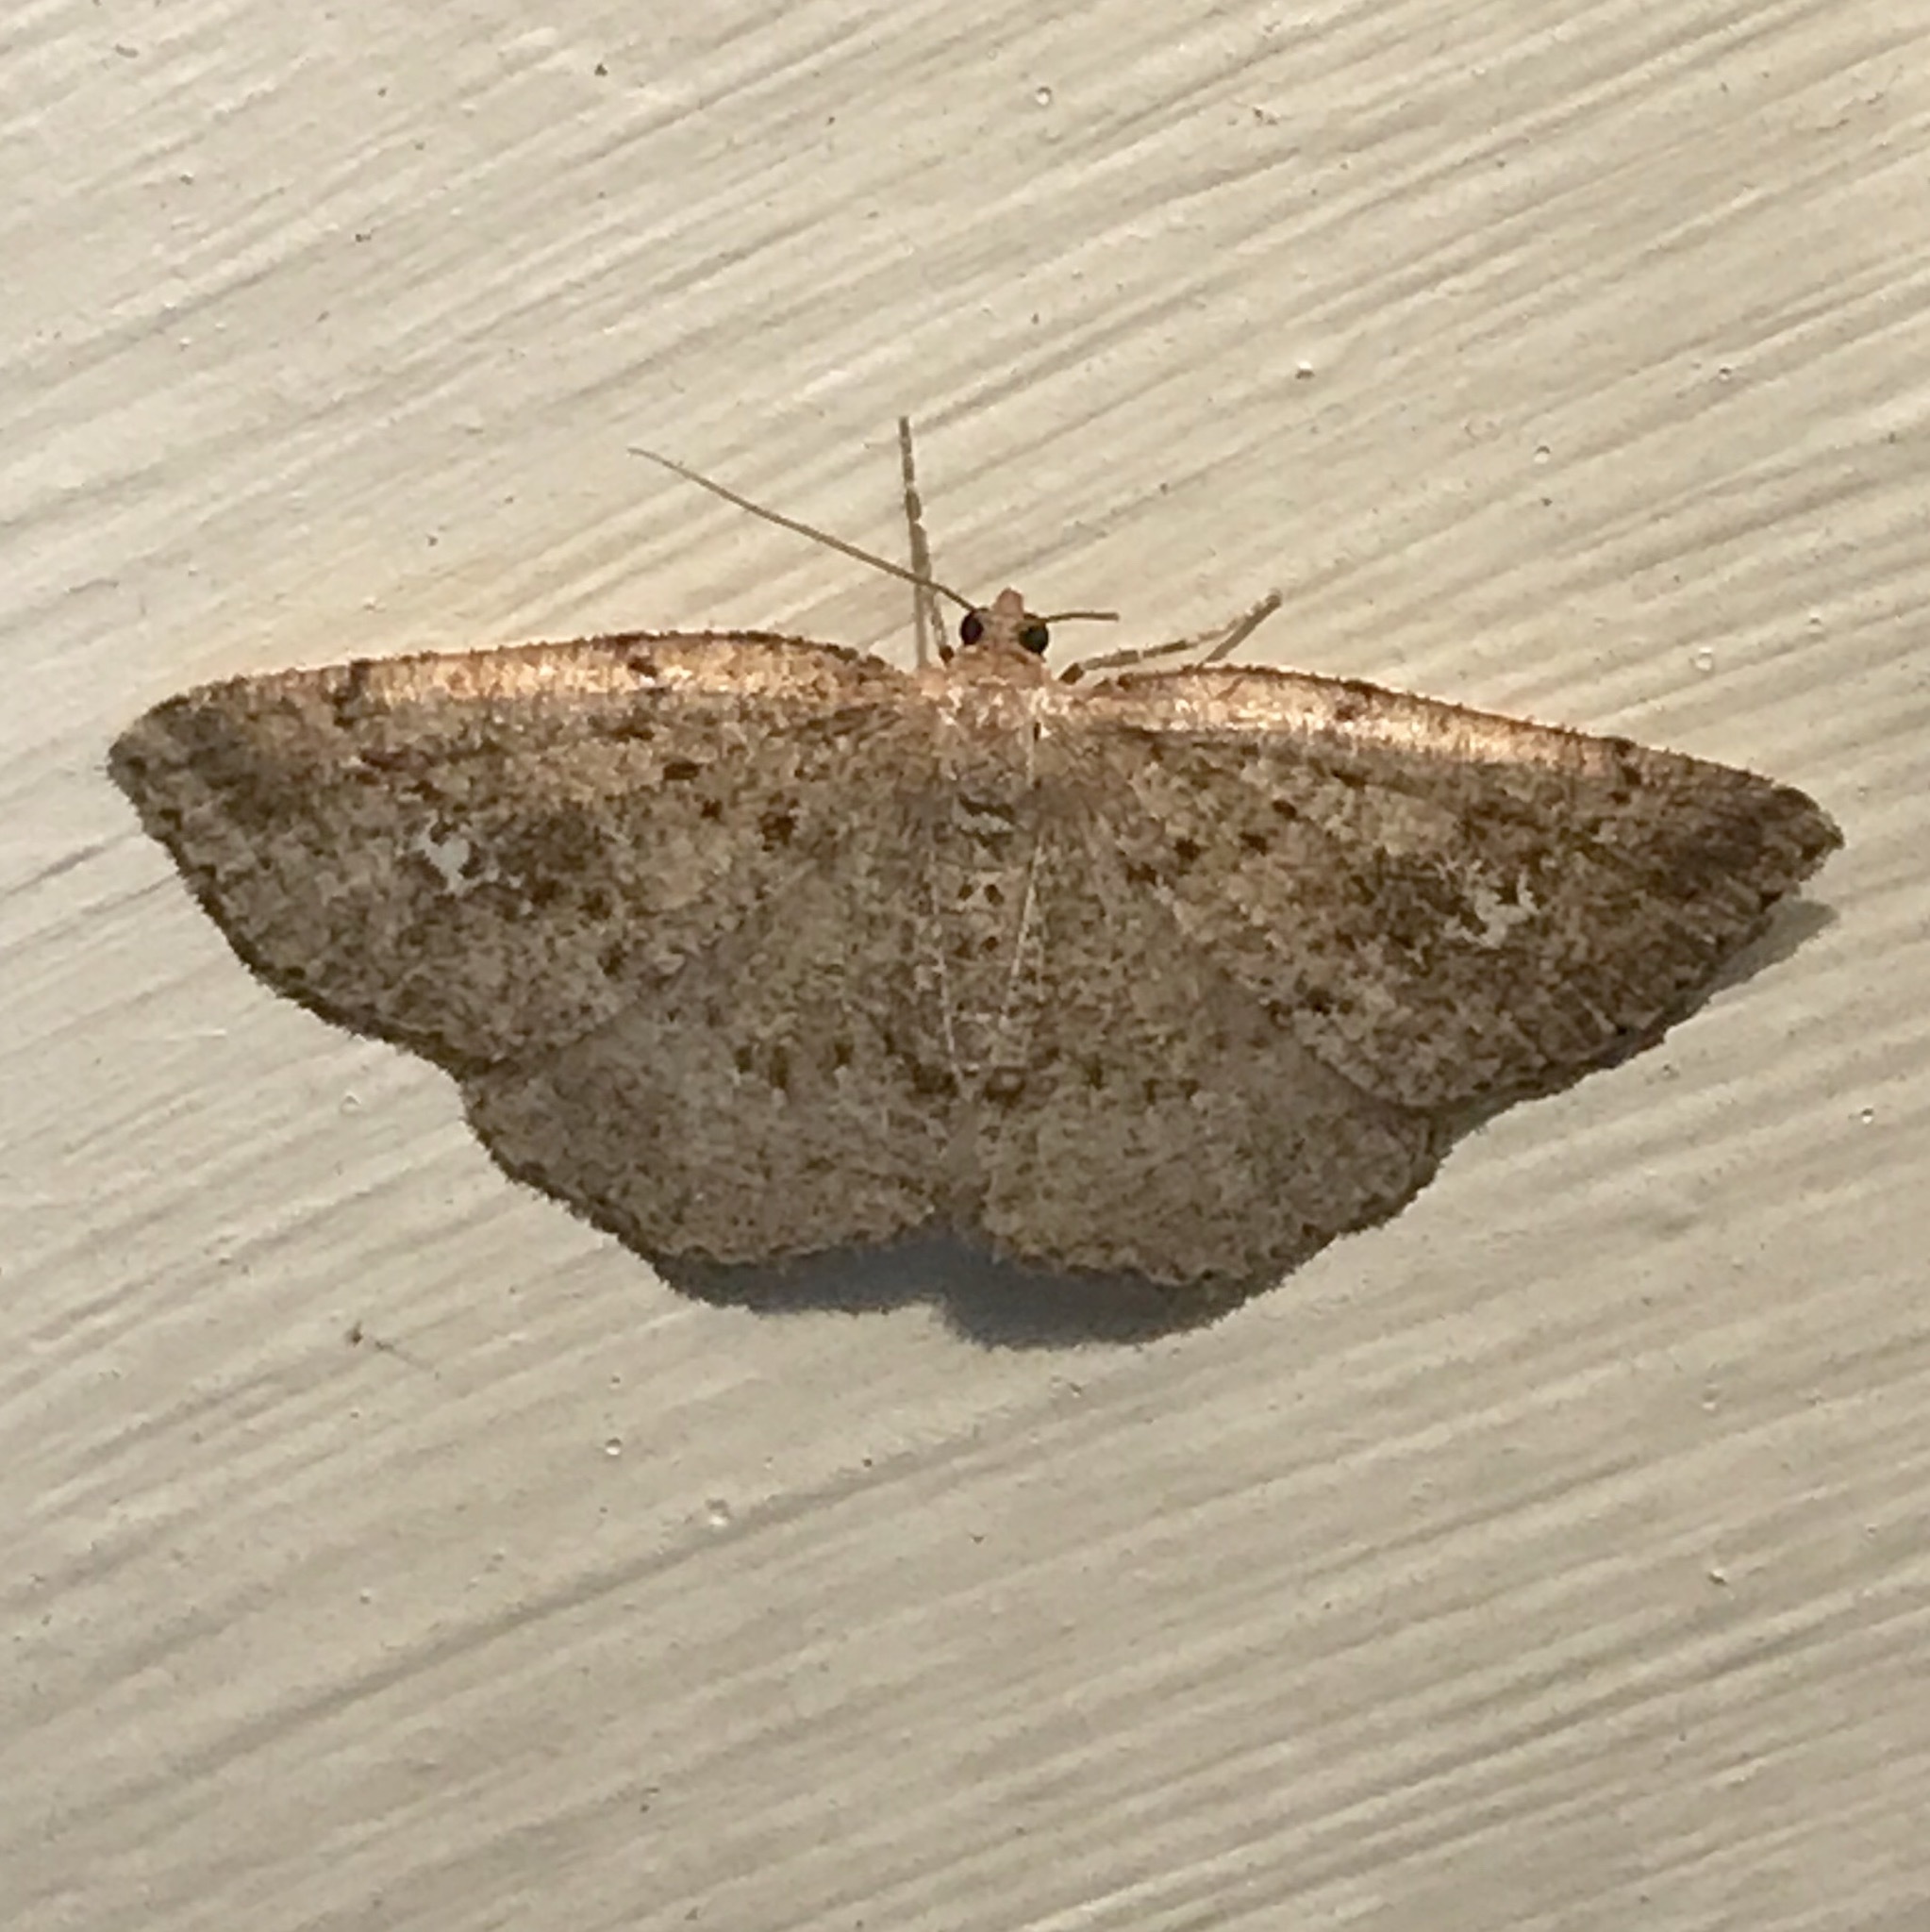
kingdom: Animalia
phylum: Arthropoda
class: Insecta
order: Lepidoptera
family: Geometridae
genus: Homochlodes
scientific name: Homochlodes fritillaria
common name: Pale homochlodes
